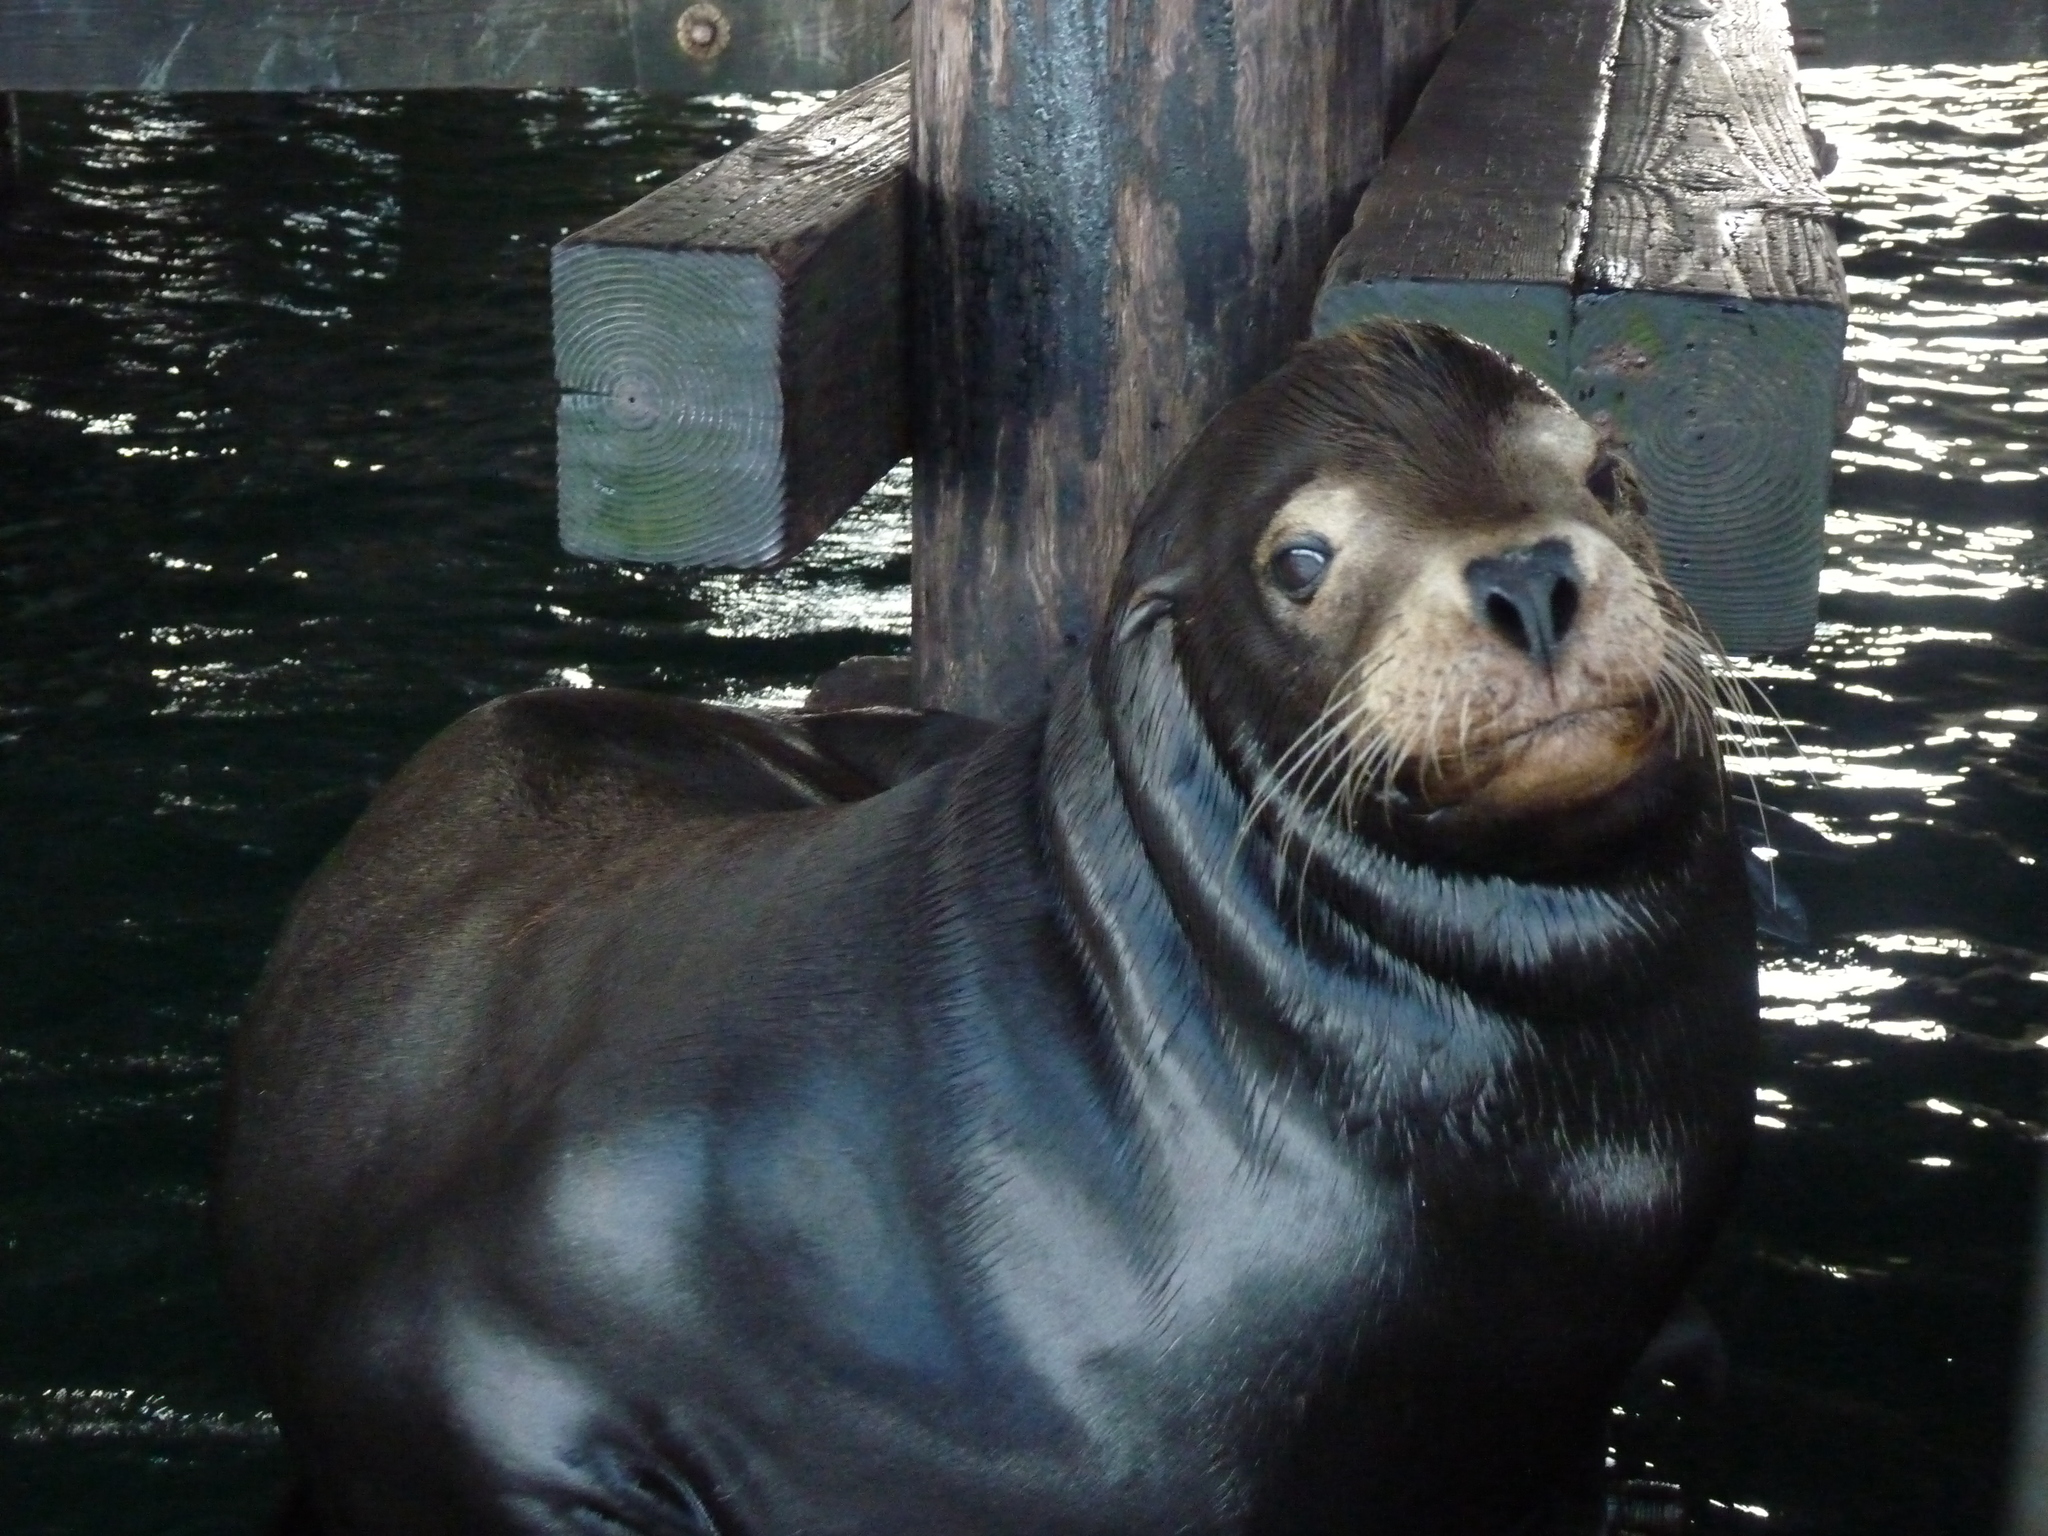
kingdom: Animalia
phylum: Chordata
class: Mammalia
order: Carnivora
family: Otariidae
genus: Zalophus
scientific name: Zalophus californianus
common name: California sea lion
